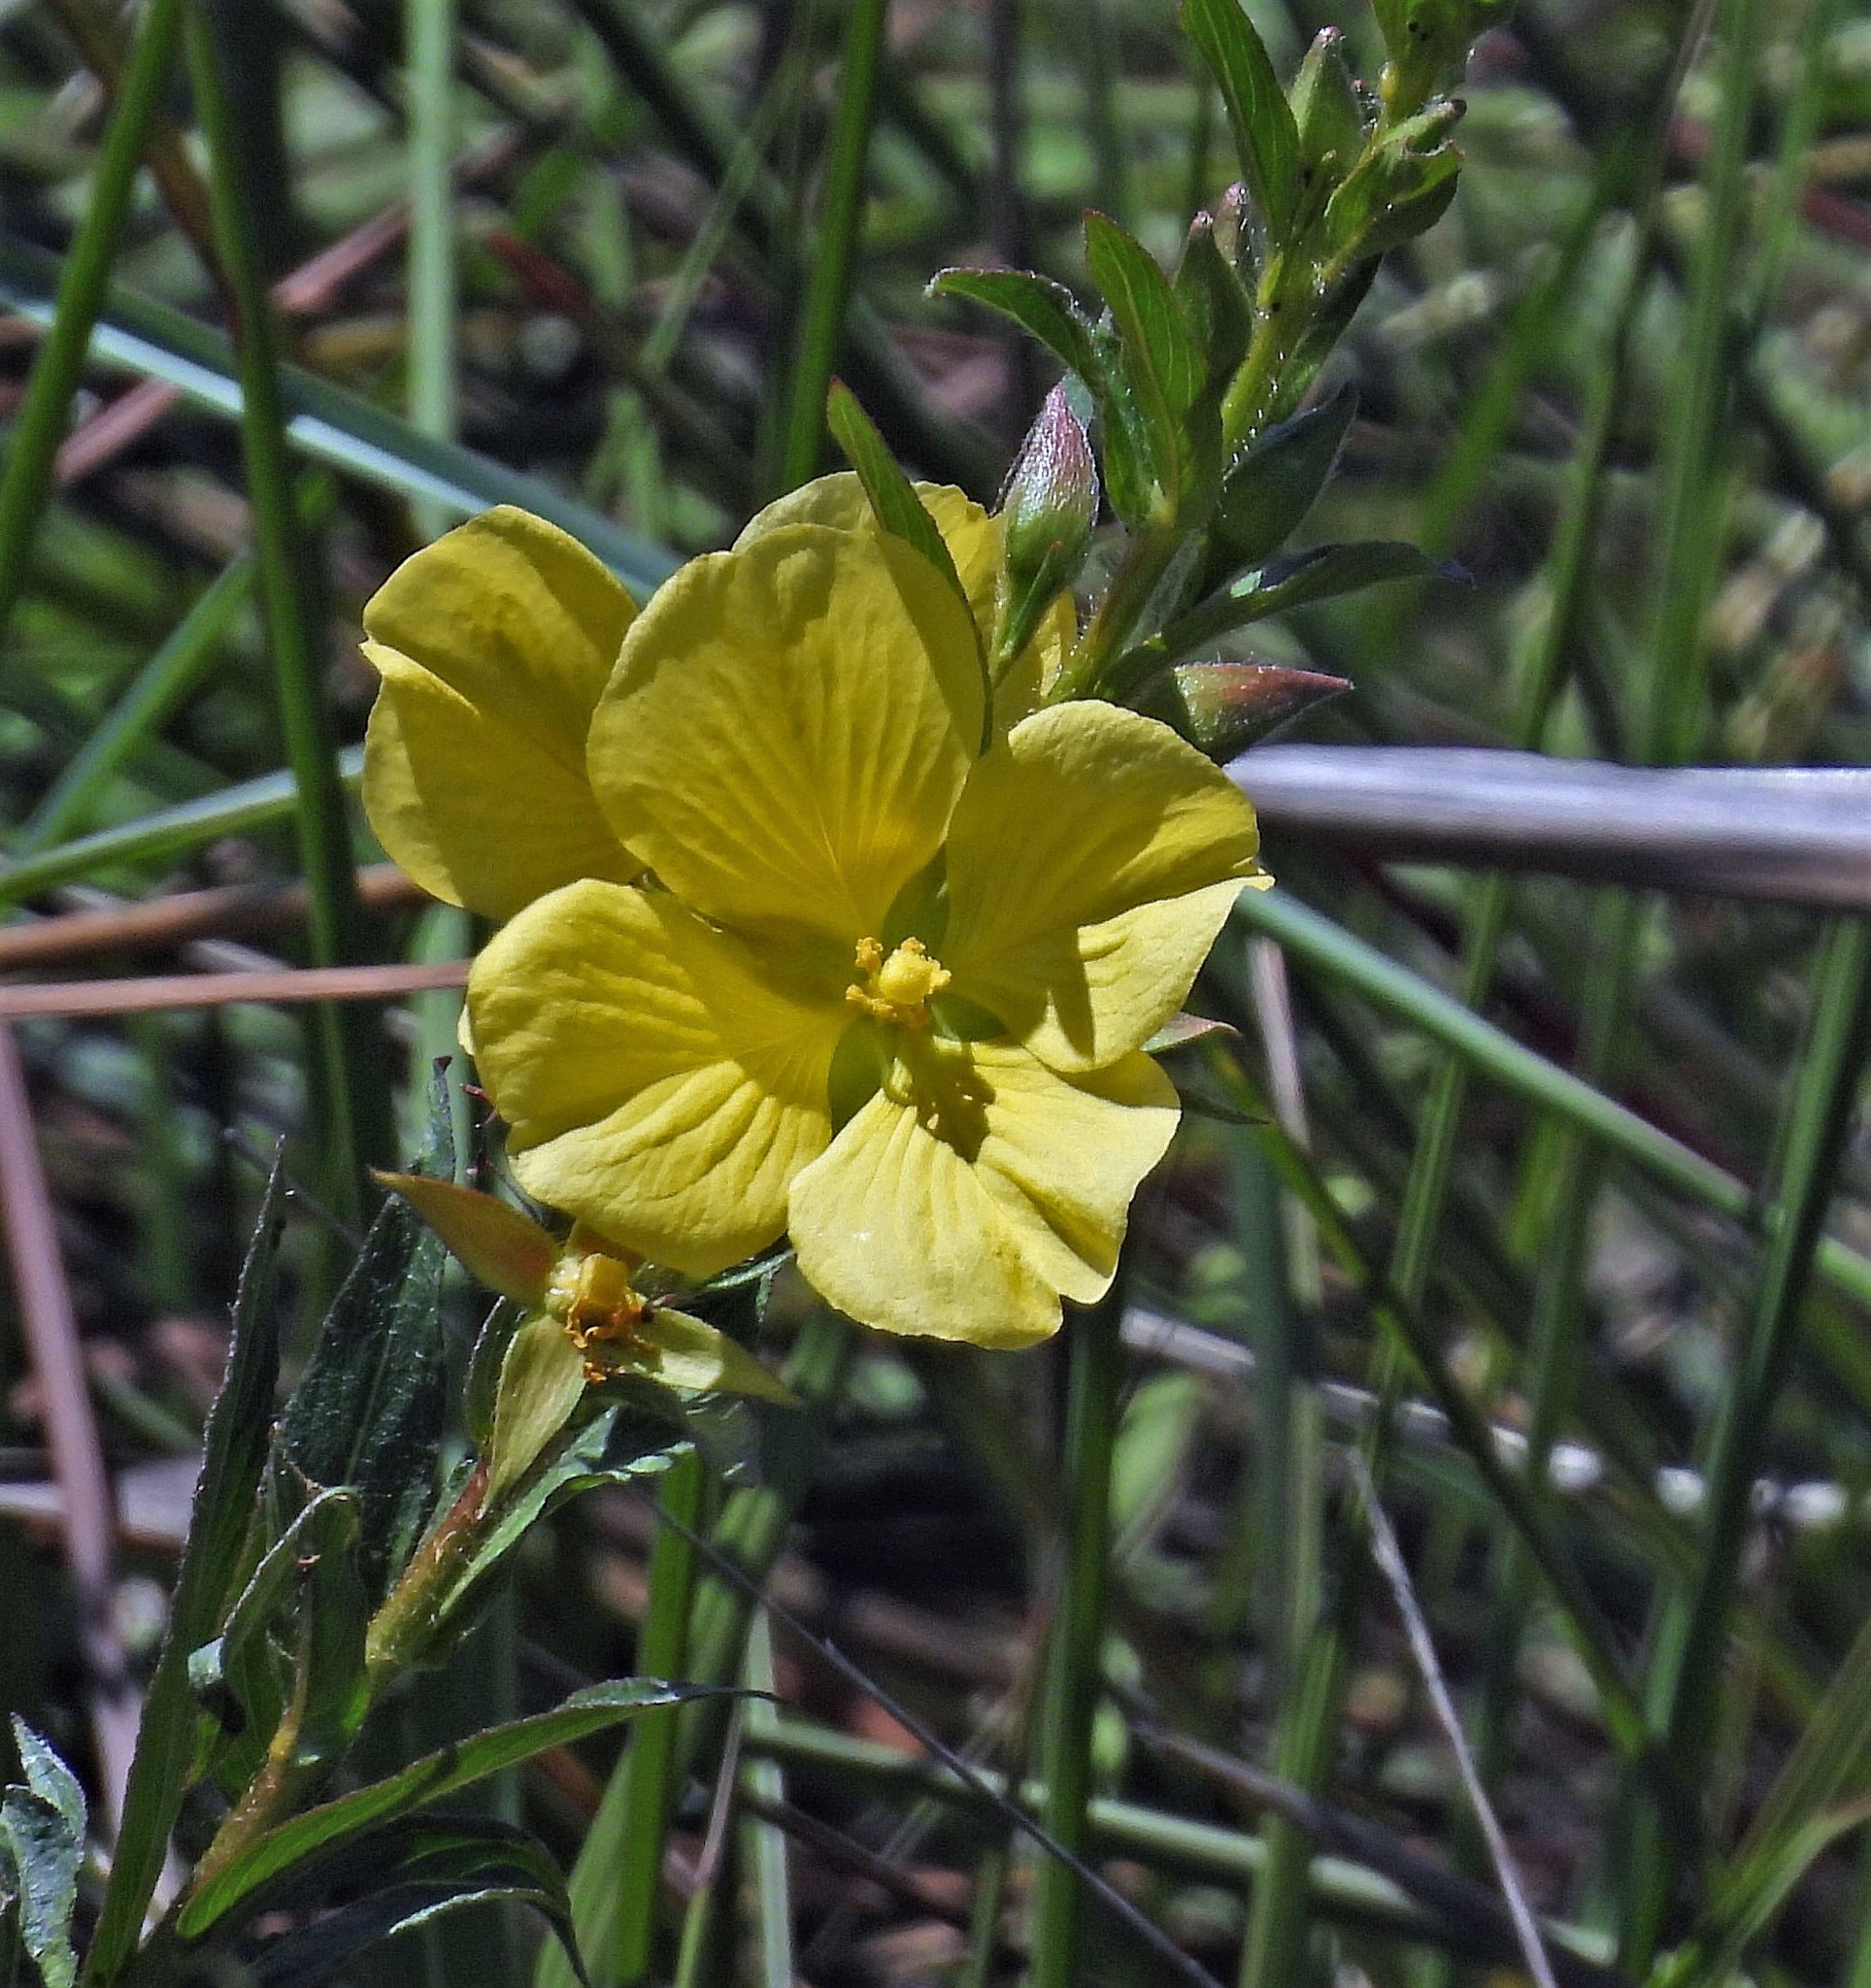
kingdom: Plantae
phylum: Tracheophyta
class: Magnoliopsida
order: Myrtales
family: Onagraceae
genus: Ludwigia
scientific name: Ludwigia sericea
